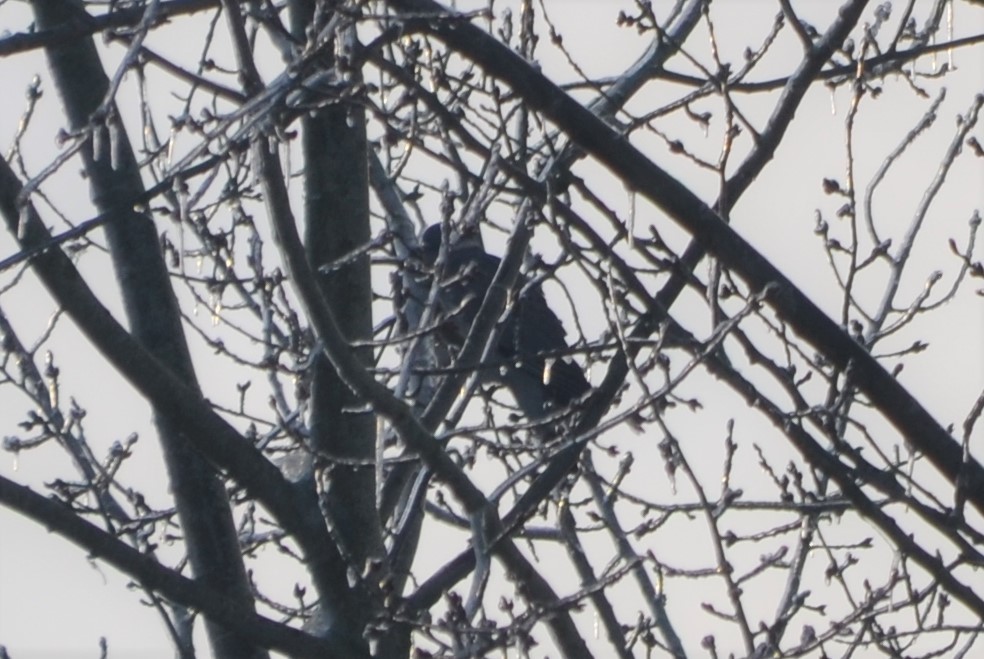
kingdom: Animalia
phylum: Chordata
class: Aves
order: Columbiformes
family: Columbidae
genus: Columba
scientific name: Columba palumbus
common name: Common wood pigeon
